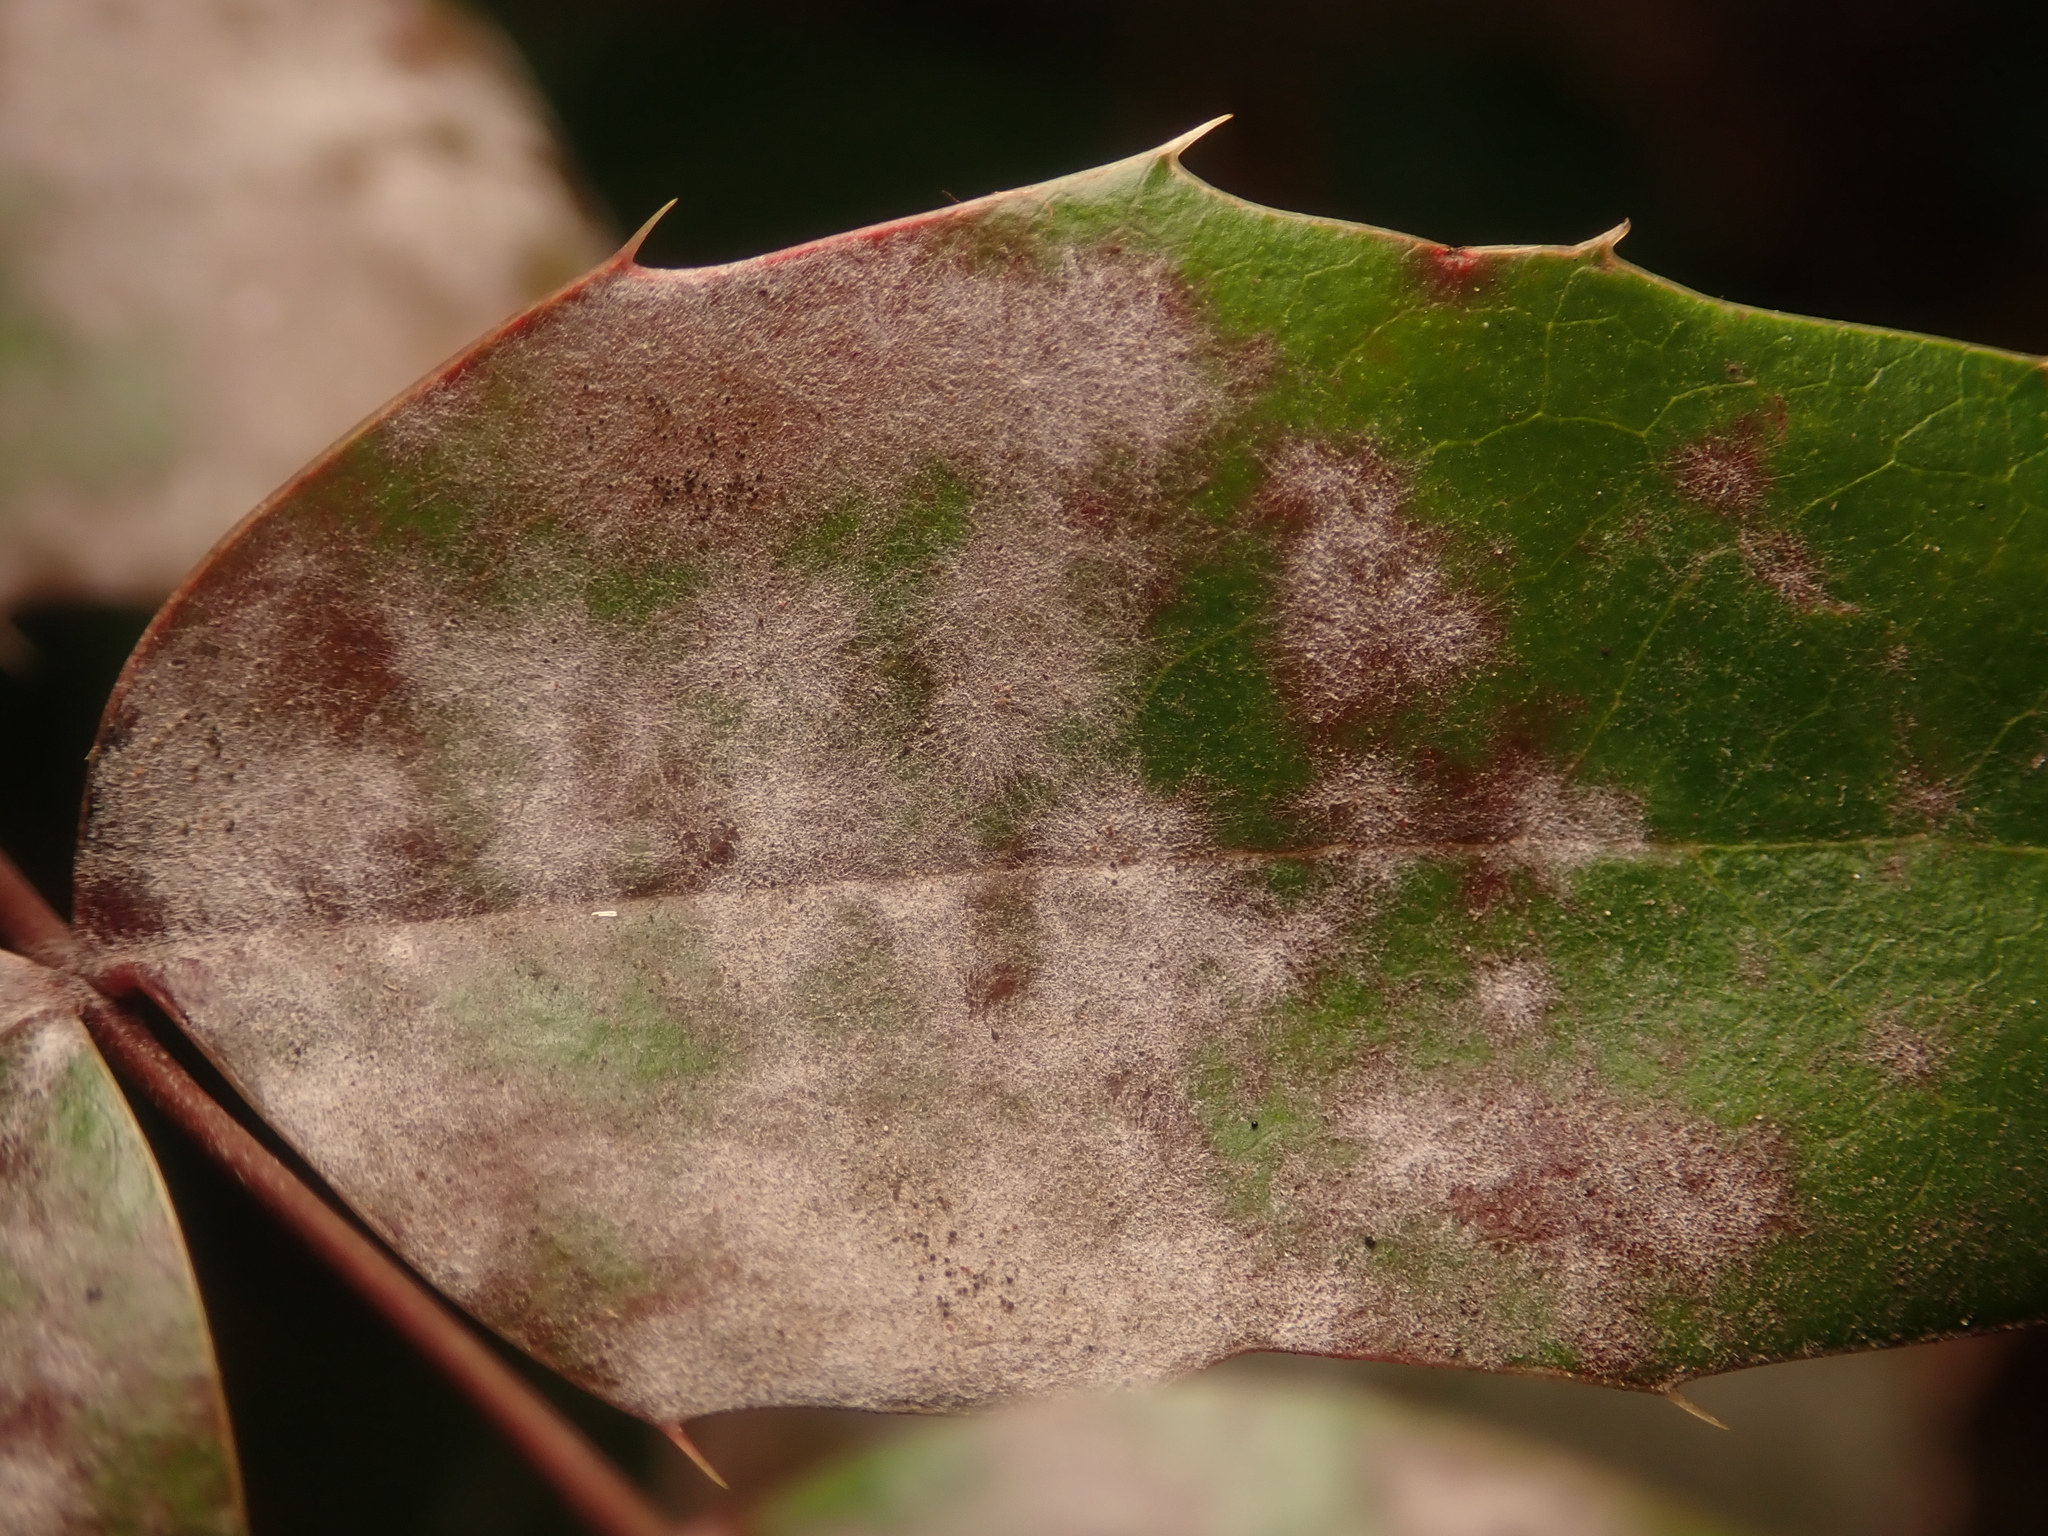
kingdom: Fungi
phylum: Ascomycota
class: Leotiomycetes
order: Helotiales
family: Erysiphaceae
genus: Erysiphe
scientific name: Erysiphe berberidis
